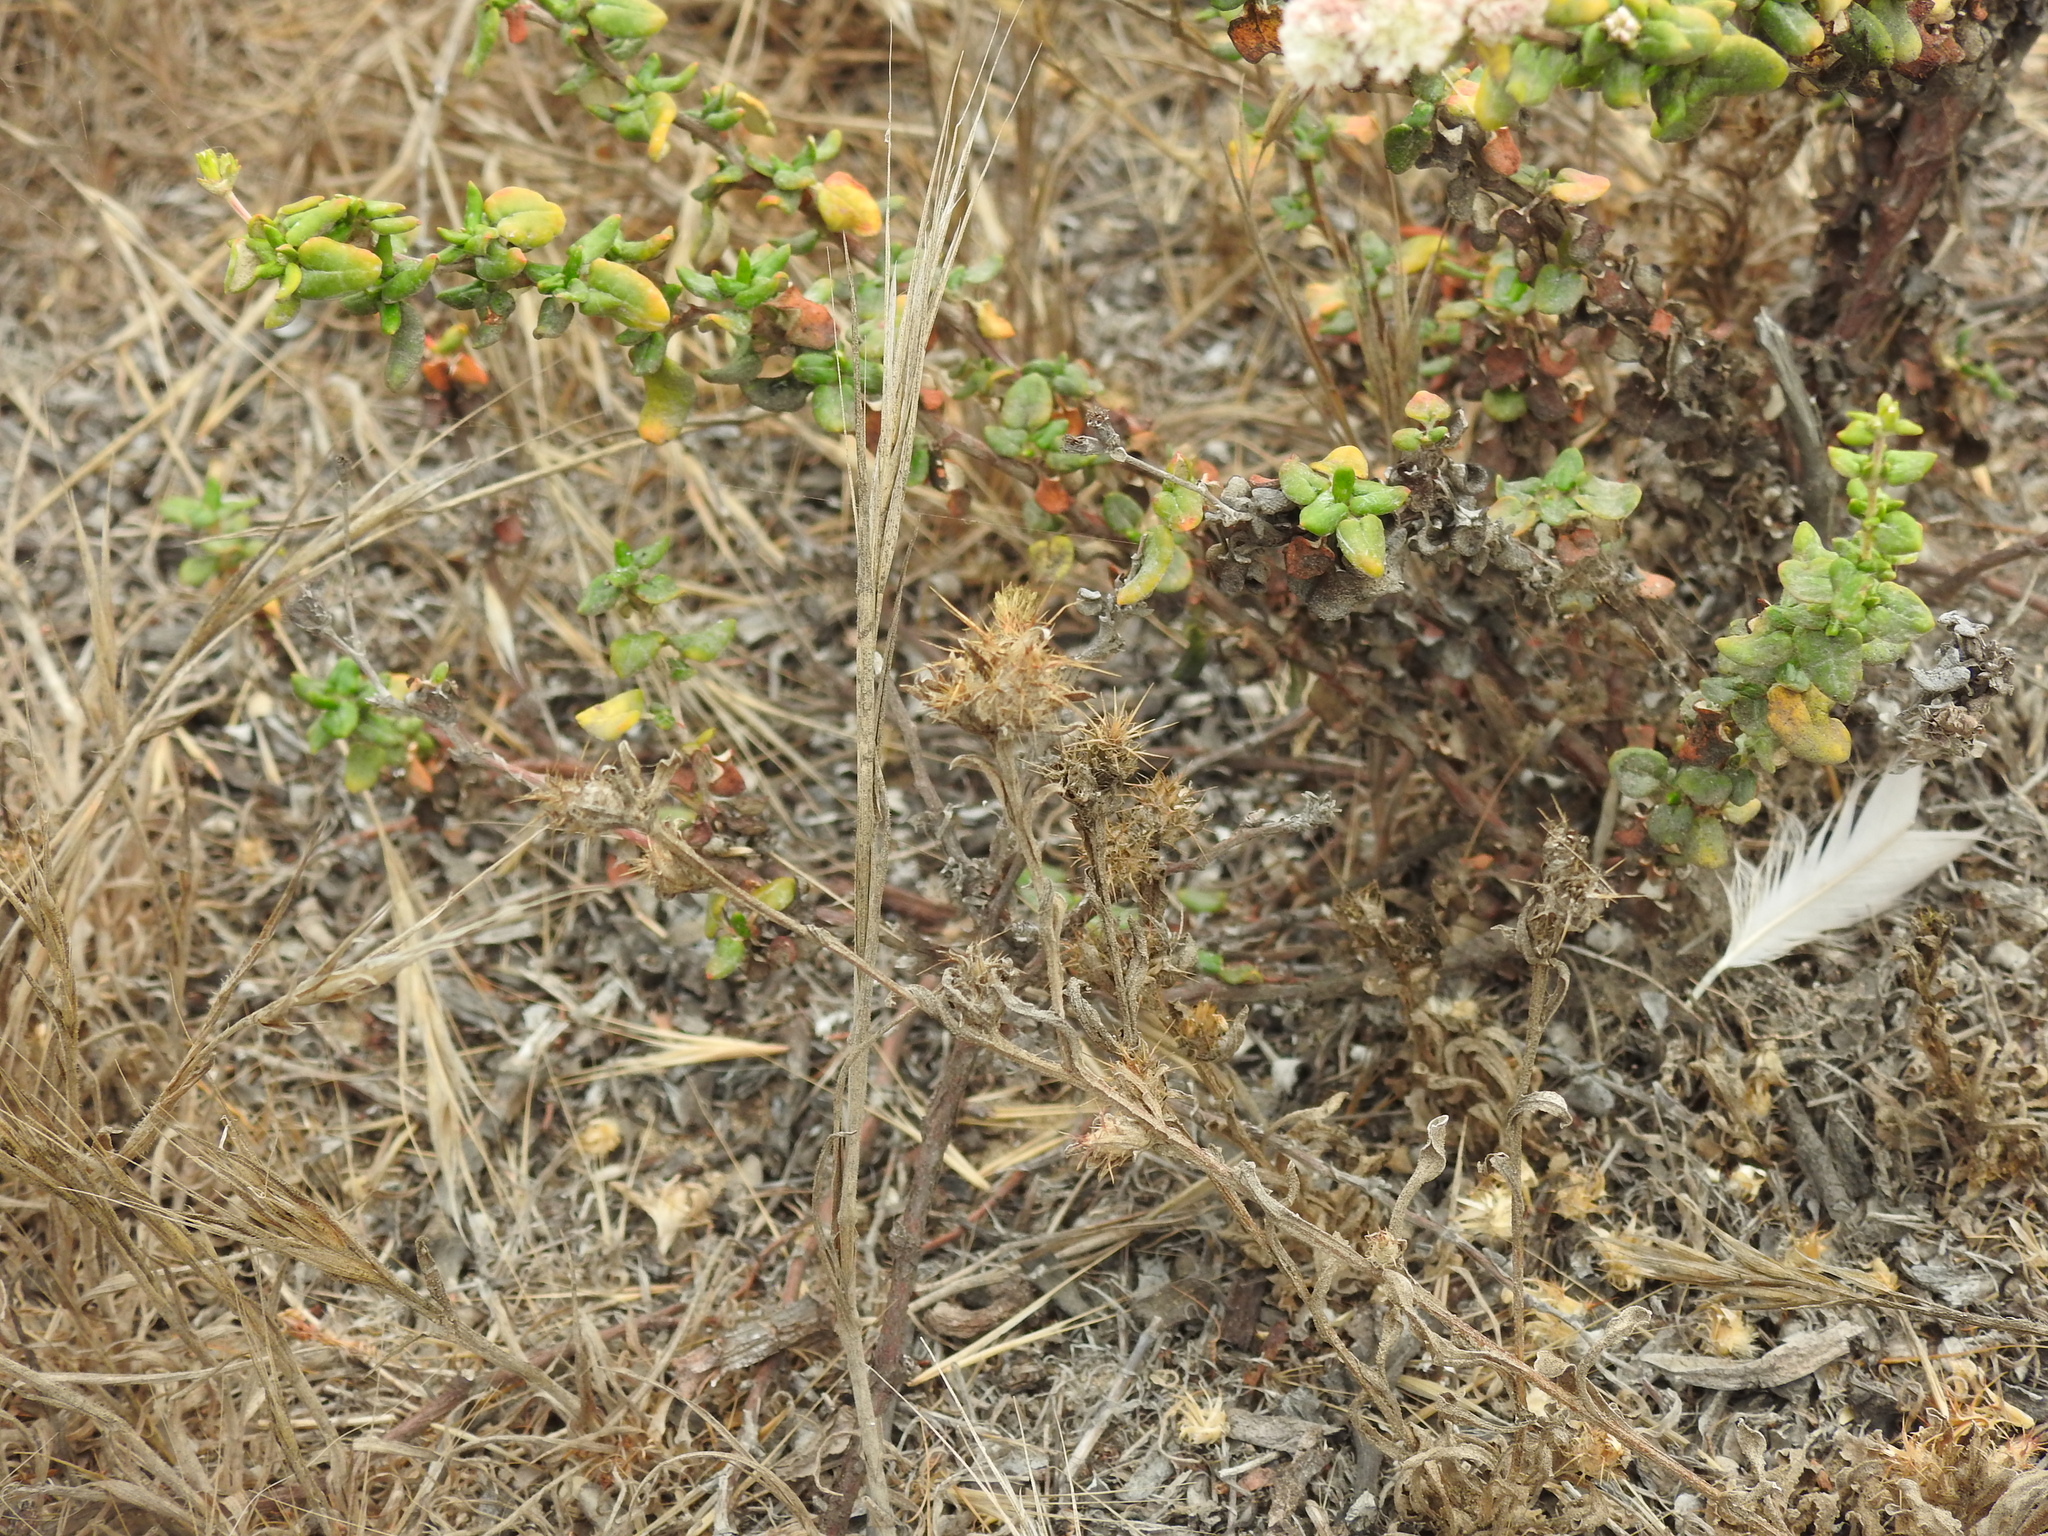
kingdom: Plantae
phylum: Tracheophyta
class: Magnoliopsida
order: Caryophyllales
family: Polygonaceae
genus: Eriogonum
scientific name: Eriogonum parvifolium
